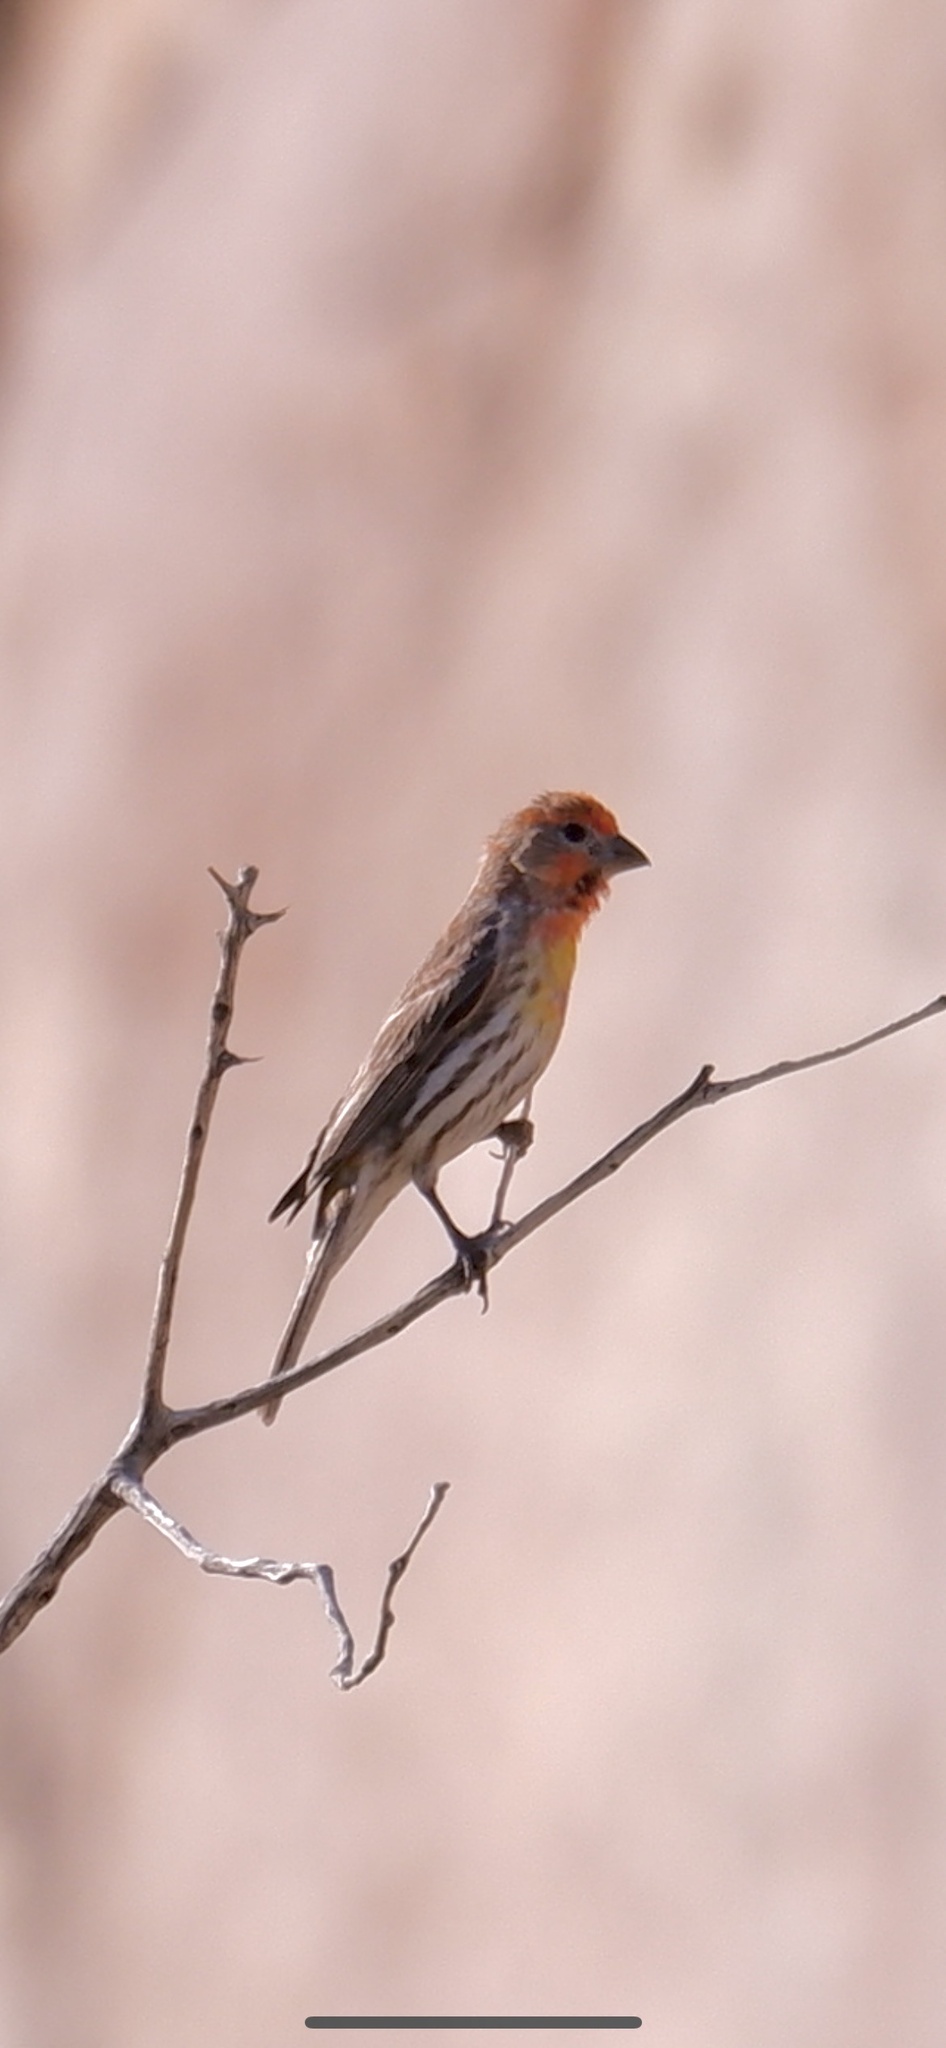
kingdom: Animalia
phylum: Chordata
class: Aves
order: Passeriformes
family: Fringillidae
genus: Haemorhous
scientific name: Haemorhous mexicanus
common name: House finch
